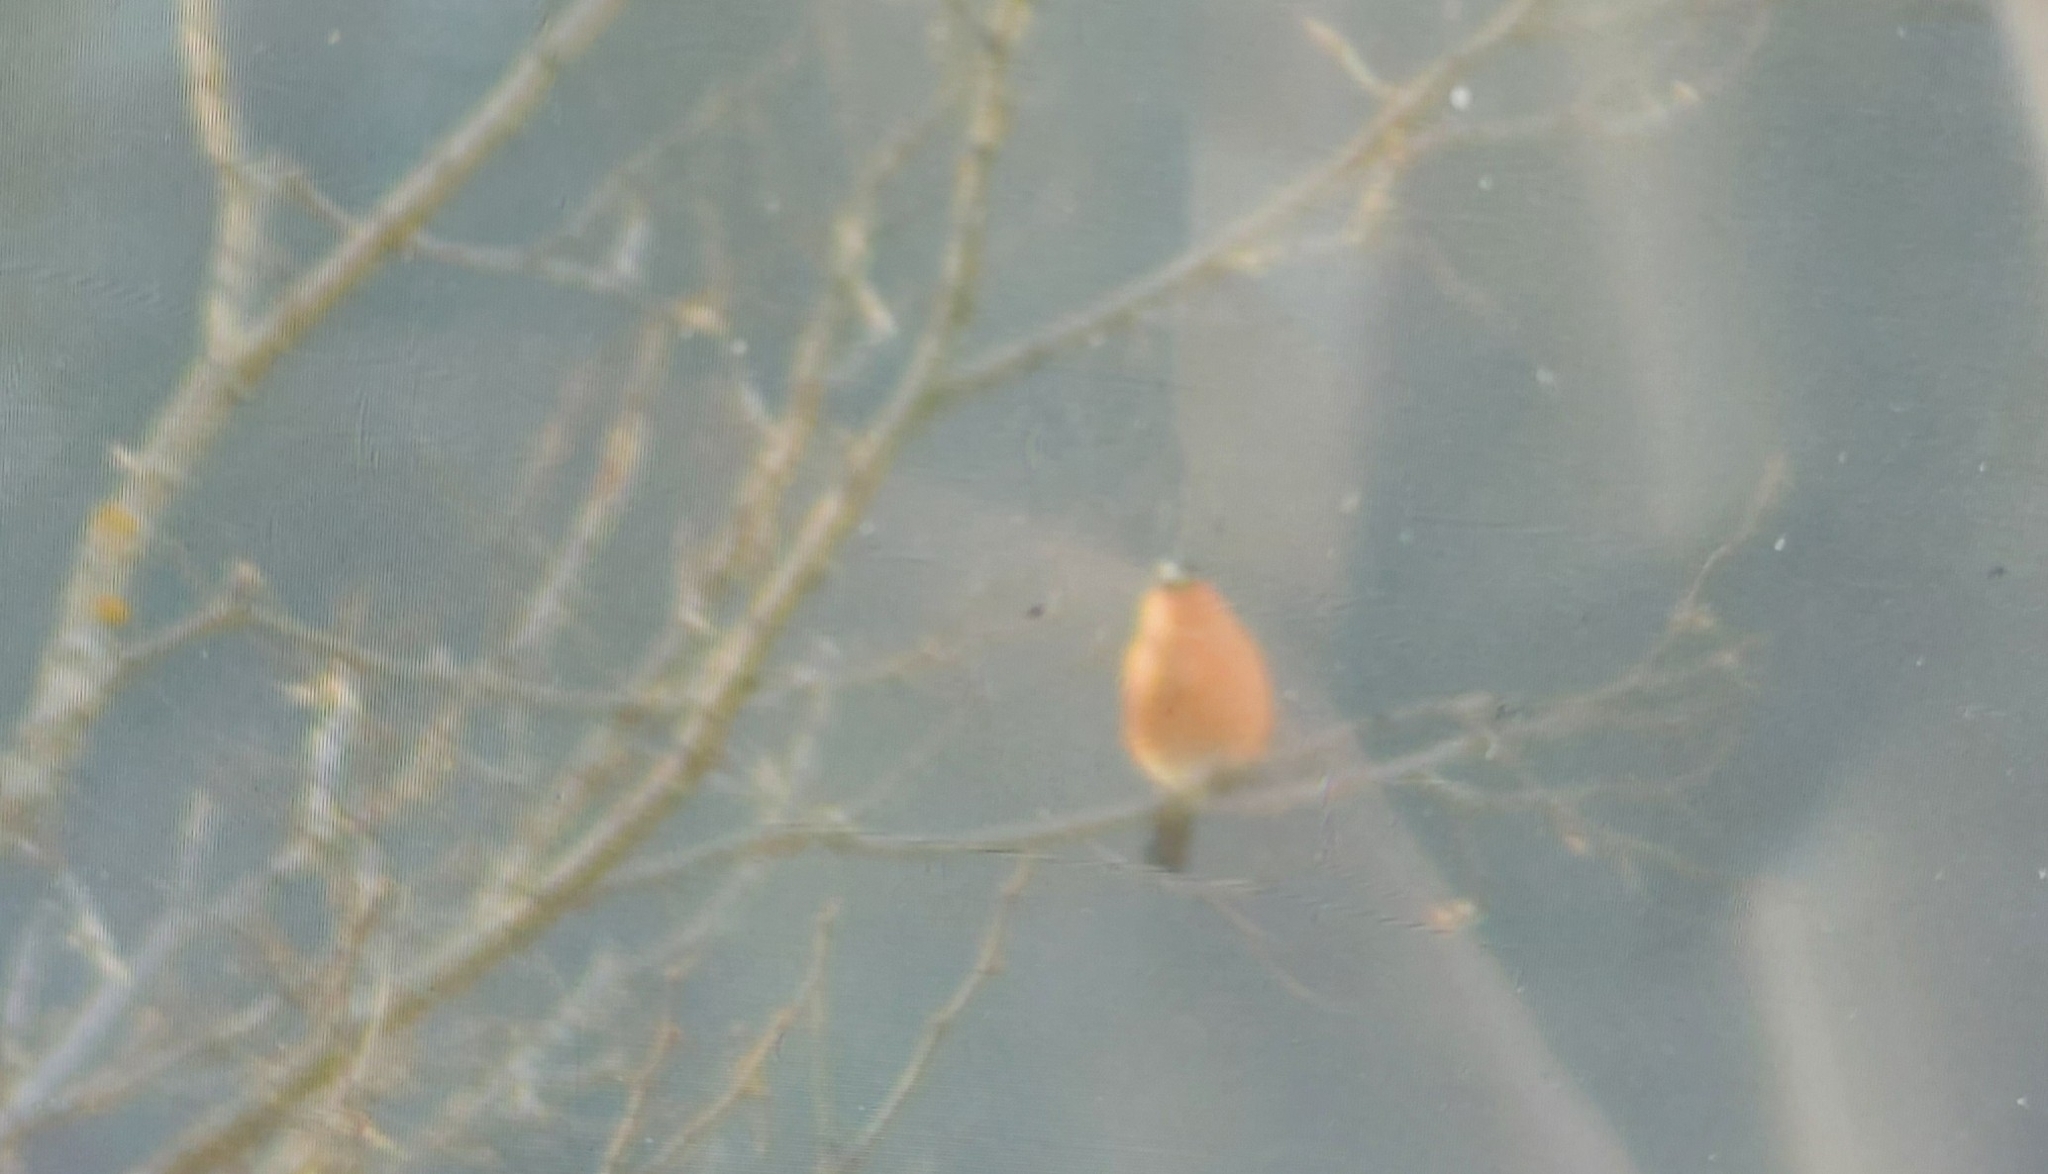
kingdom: Animalia
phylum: Chordata
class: Aves
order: Passeriformes
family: Fringillidae
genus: Pyrrhula
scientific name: Pyrrhula pyrrhula
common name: Eurasian bullfinch
